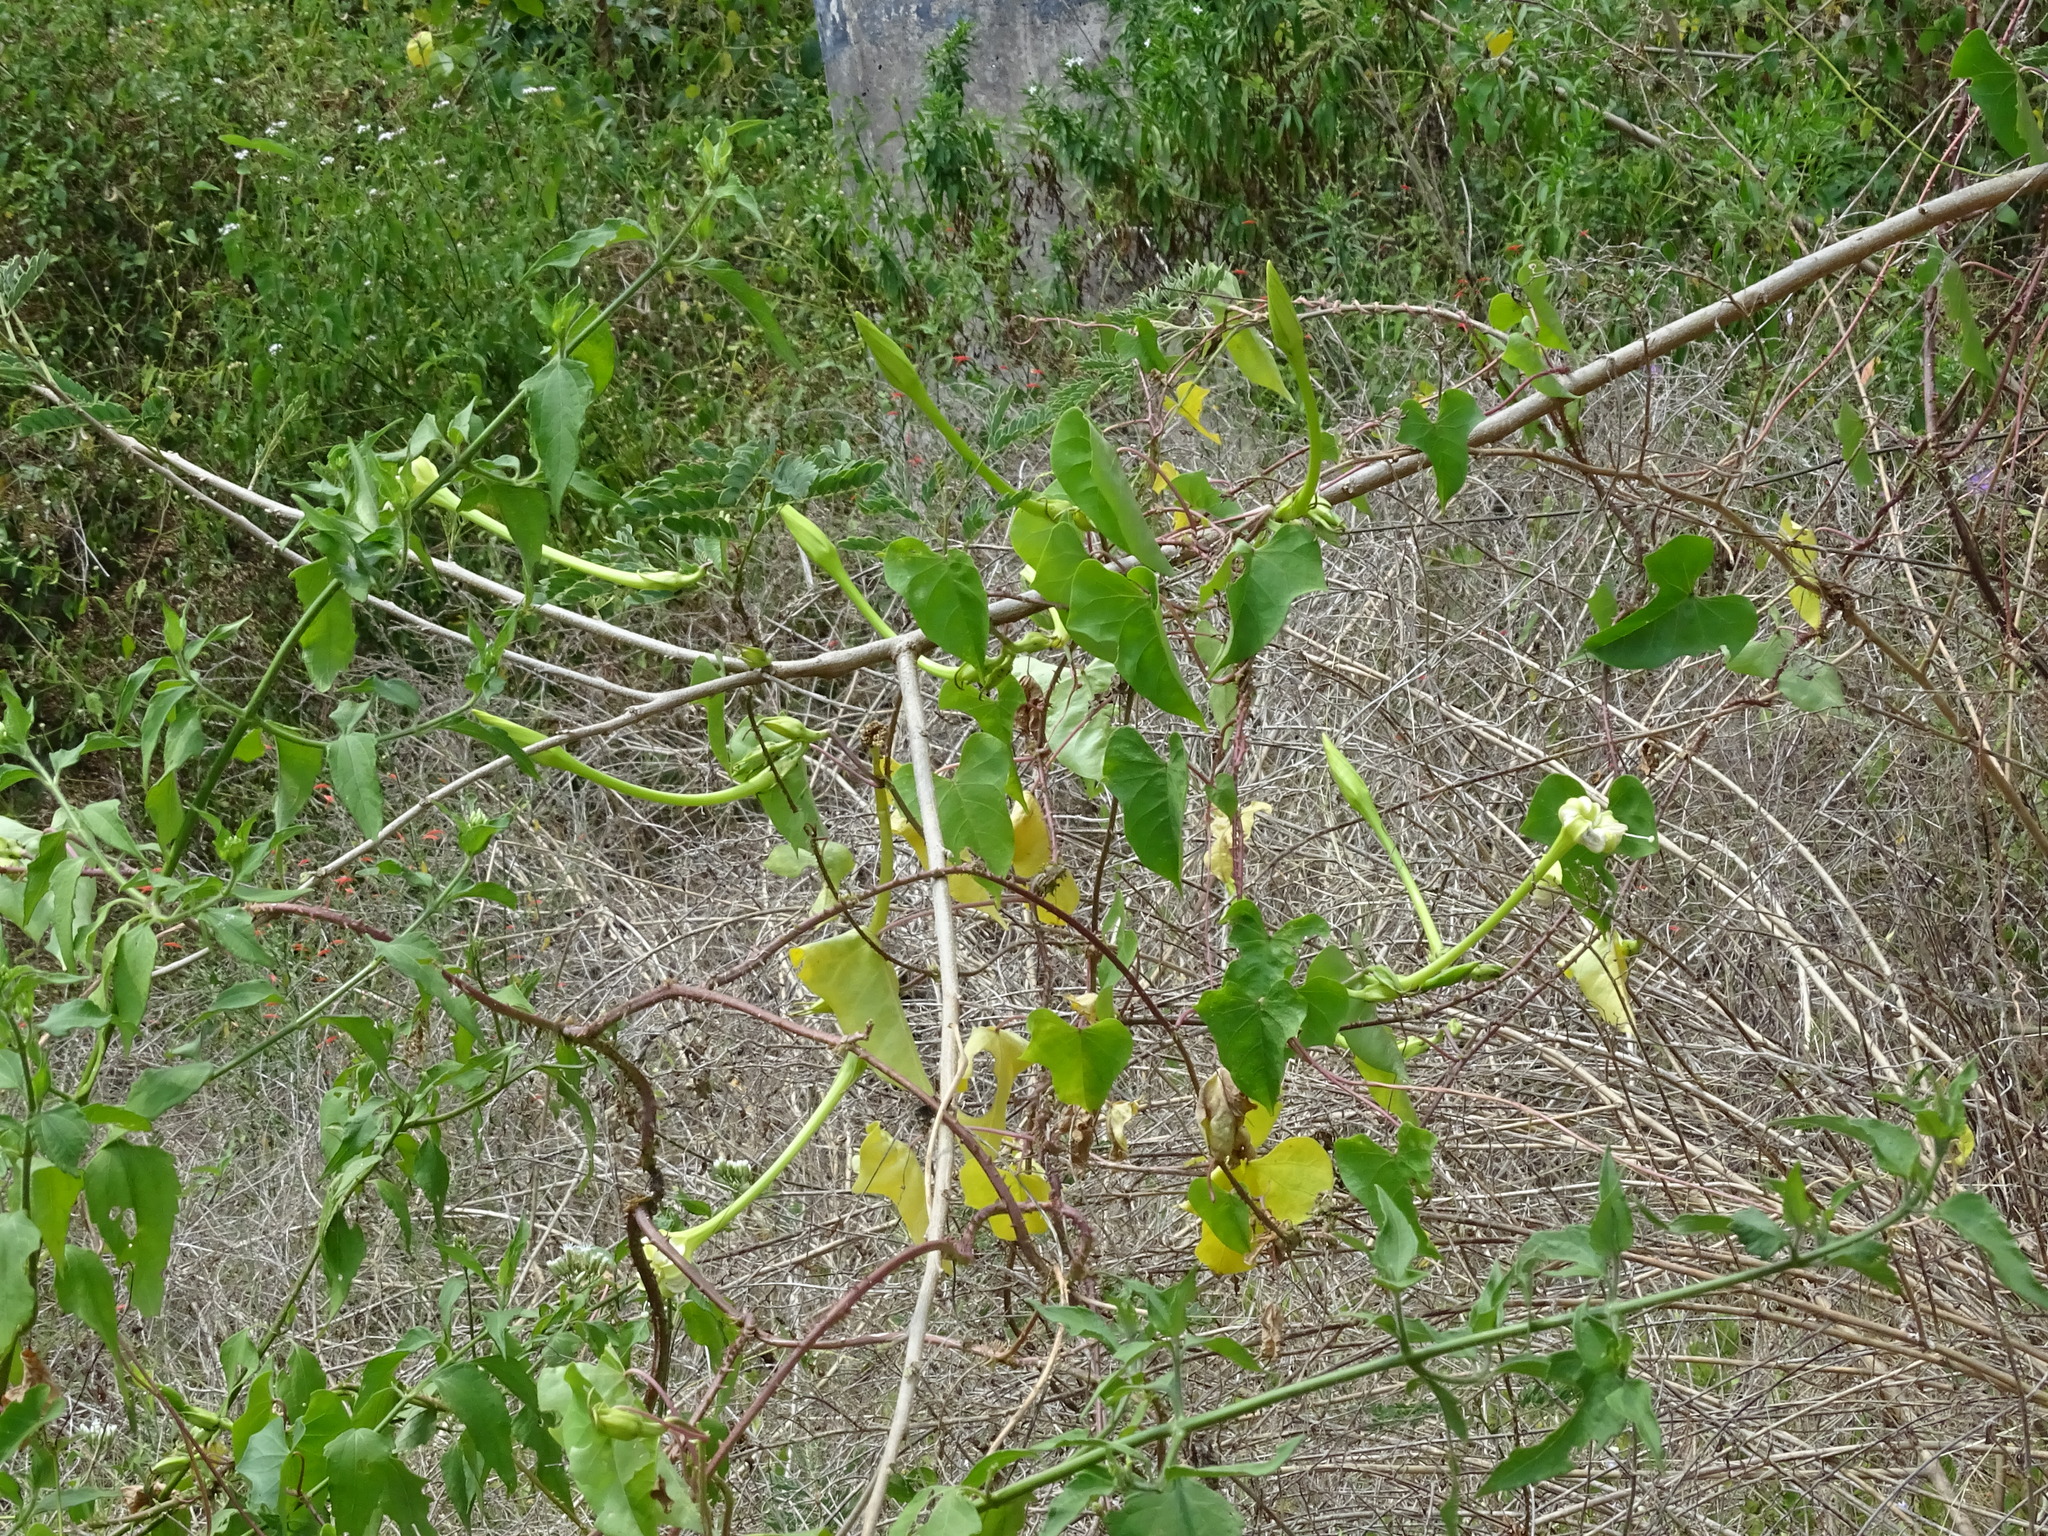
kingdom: Plantae
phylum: Tracheophyta
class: Magnoliopsida
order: Solanales
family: Convolvulaceae
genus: Ipomoea
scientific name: Ipomoea alba
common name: Moonflower
